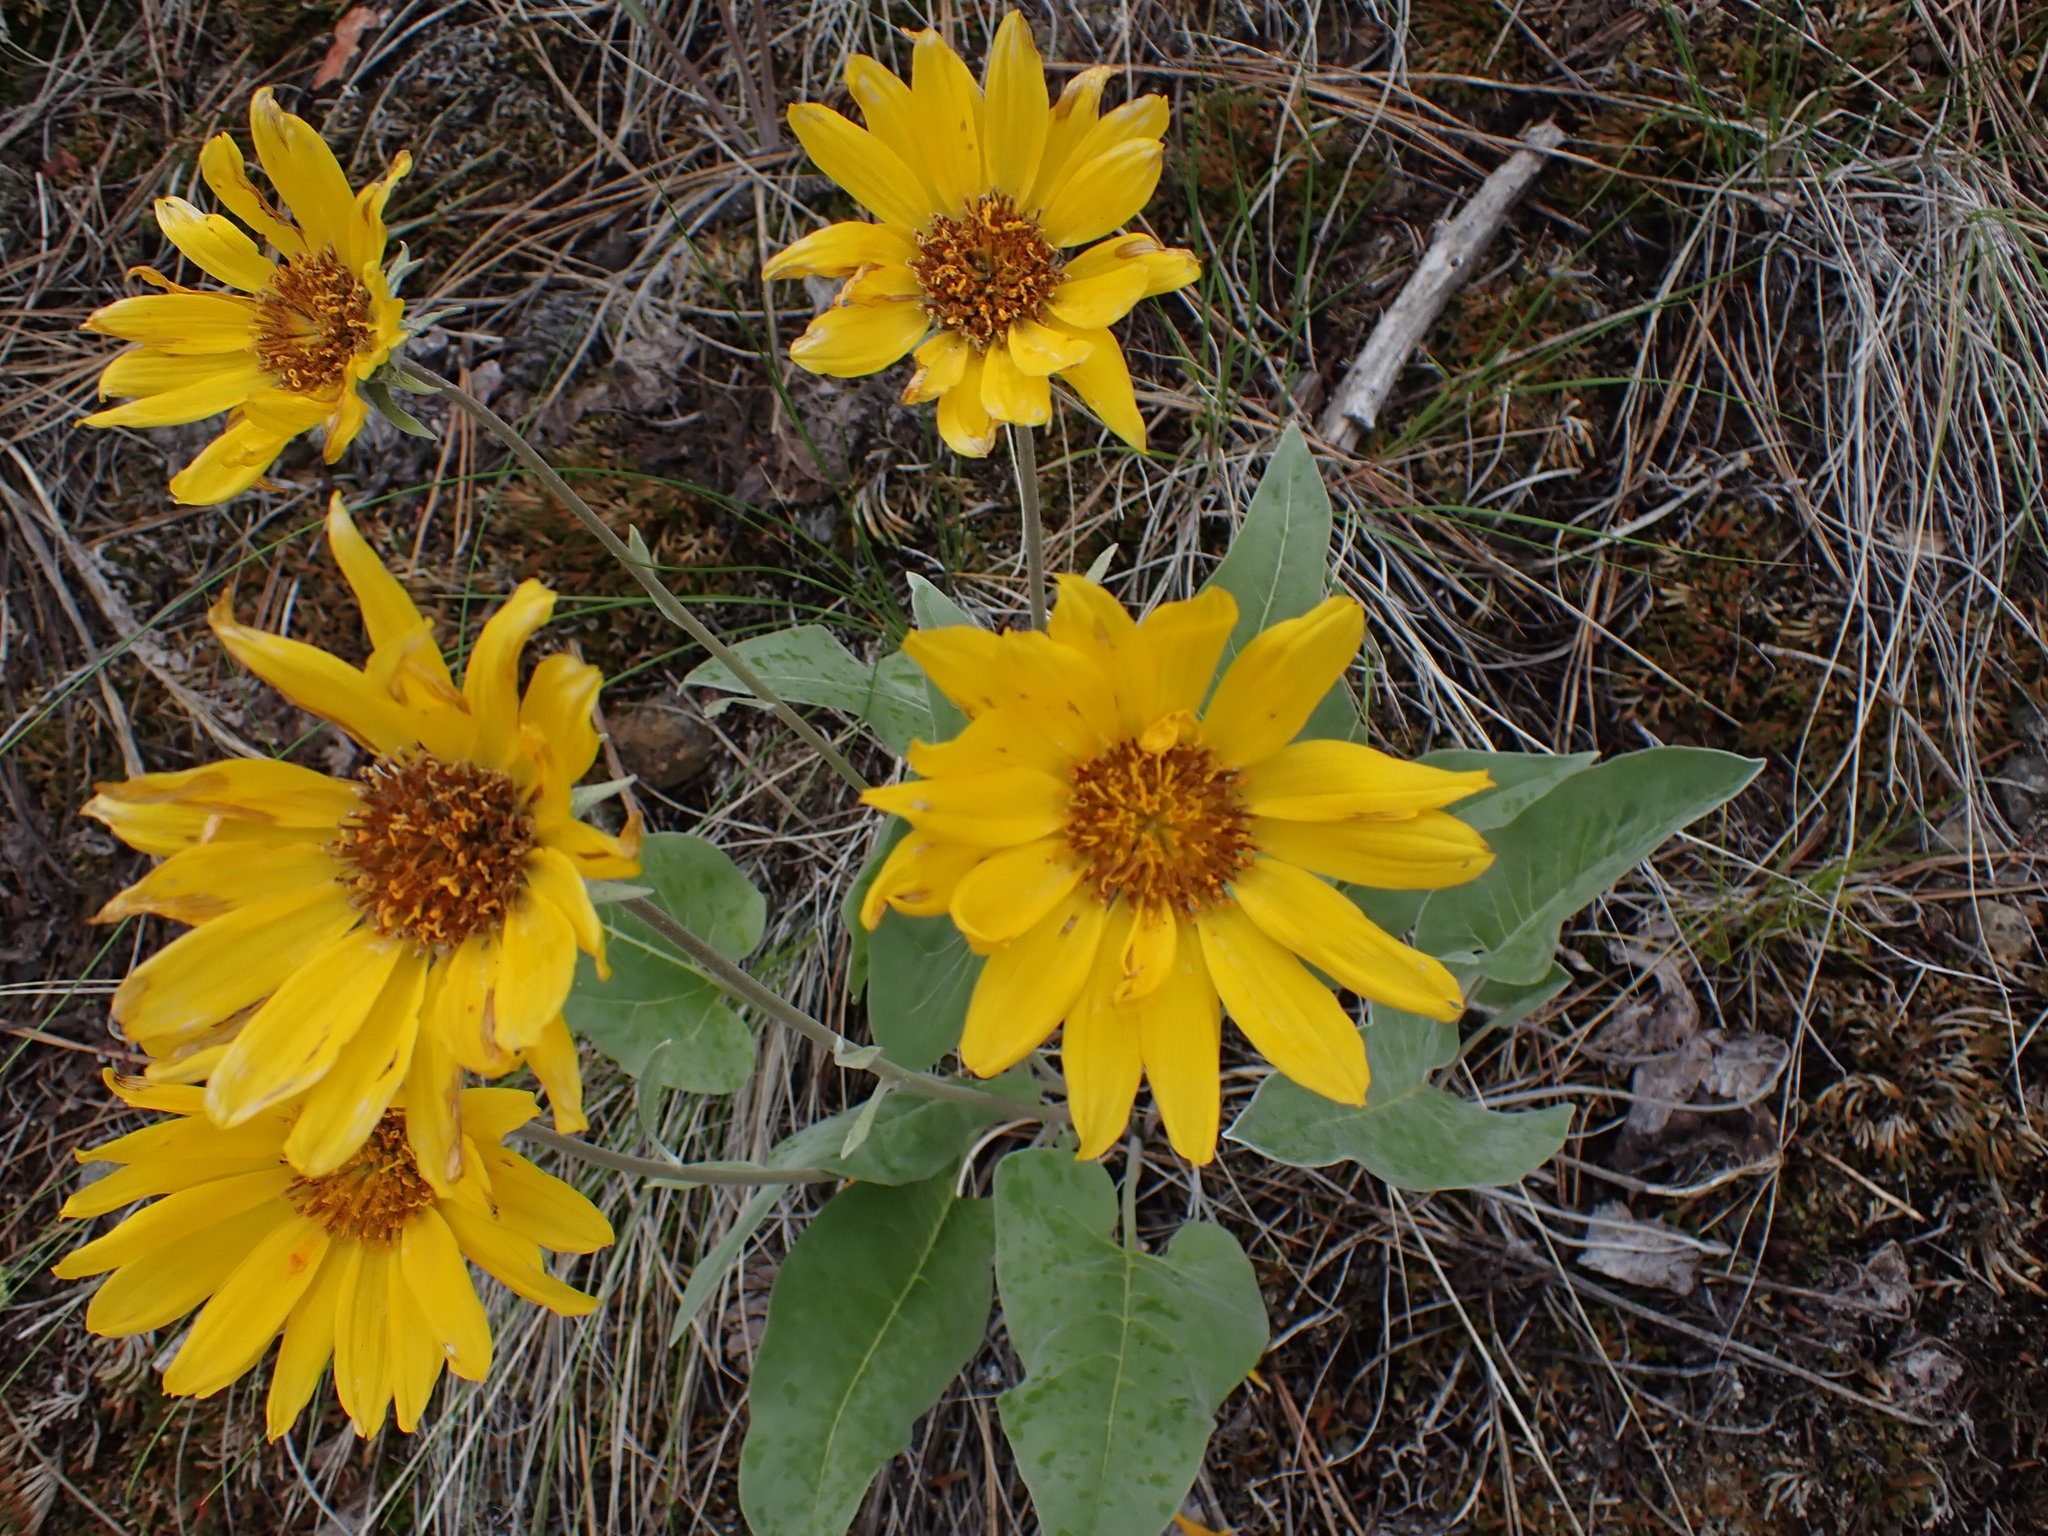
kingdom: Plantae
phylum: Tracheophyta
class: Magnoliopsida
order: Asterales
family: Asteraceae
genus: Wyethia
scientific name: Wyethia sagittata
